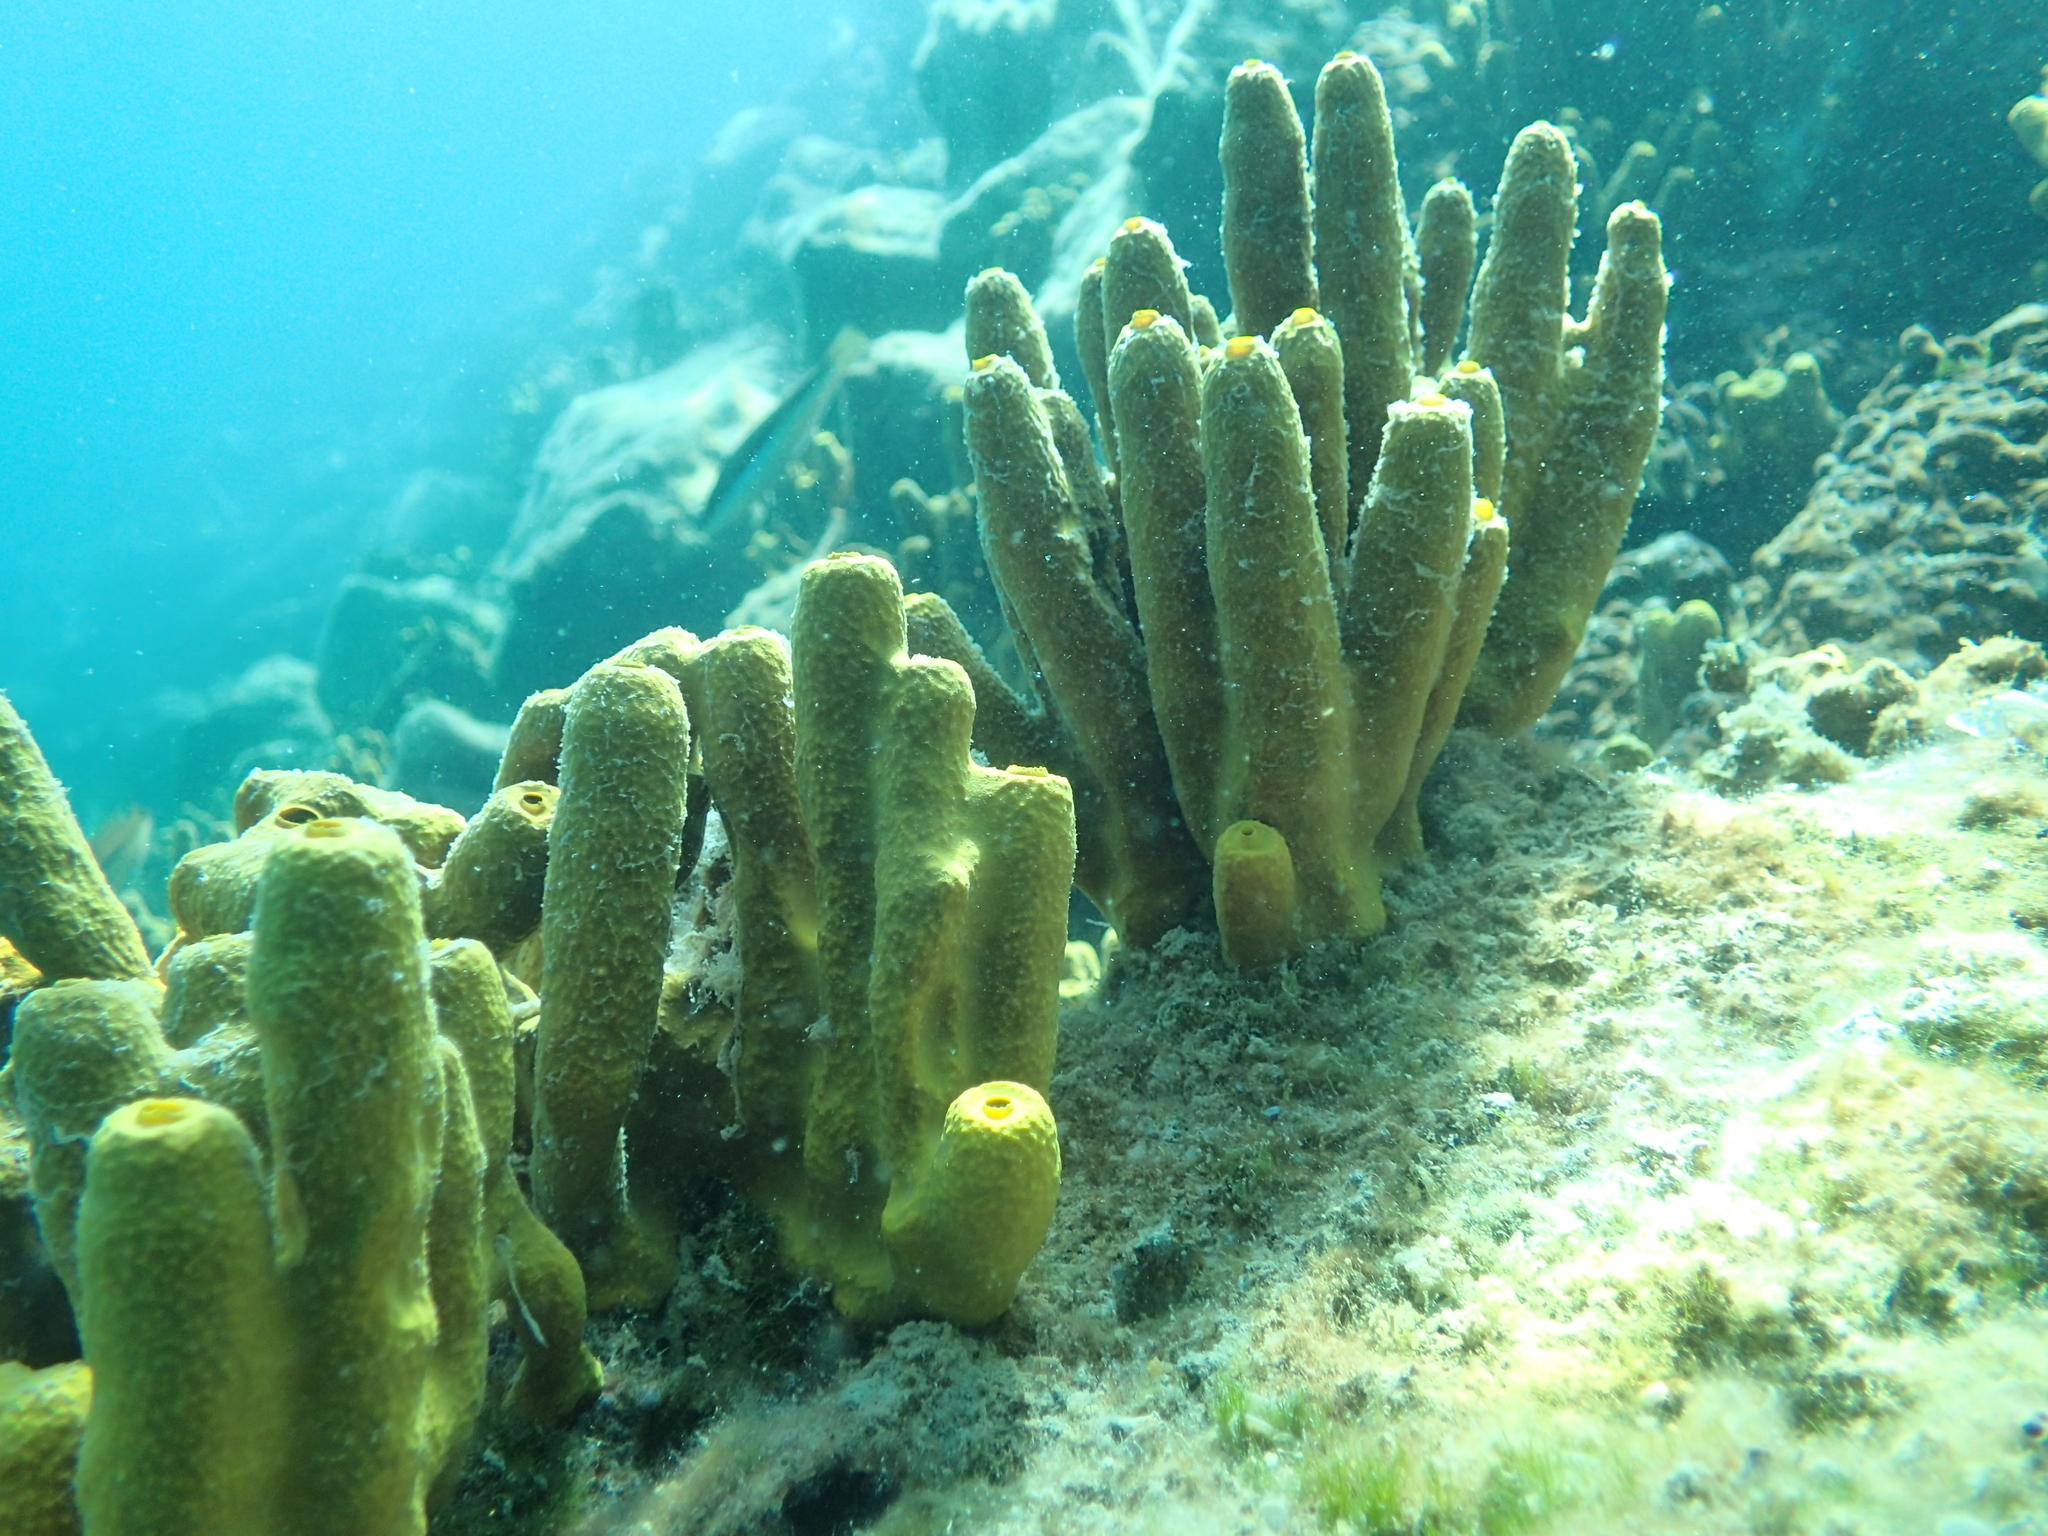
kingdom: Animalia
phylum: Porifera
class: Demospongiae
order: Verongiida
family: Aplysinidae
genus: Aplysina
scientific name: Aplysina aerophoba
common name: Aureate sponge
